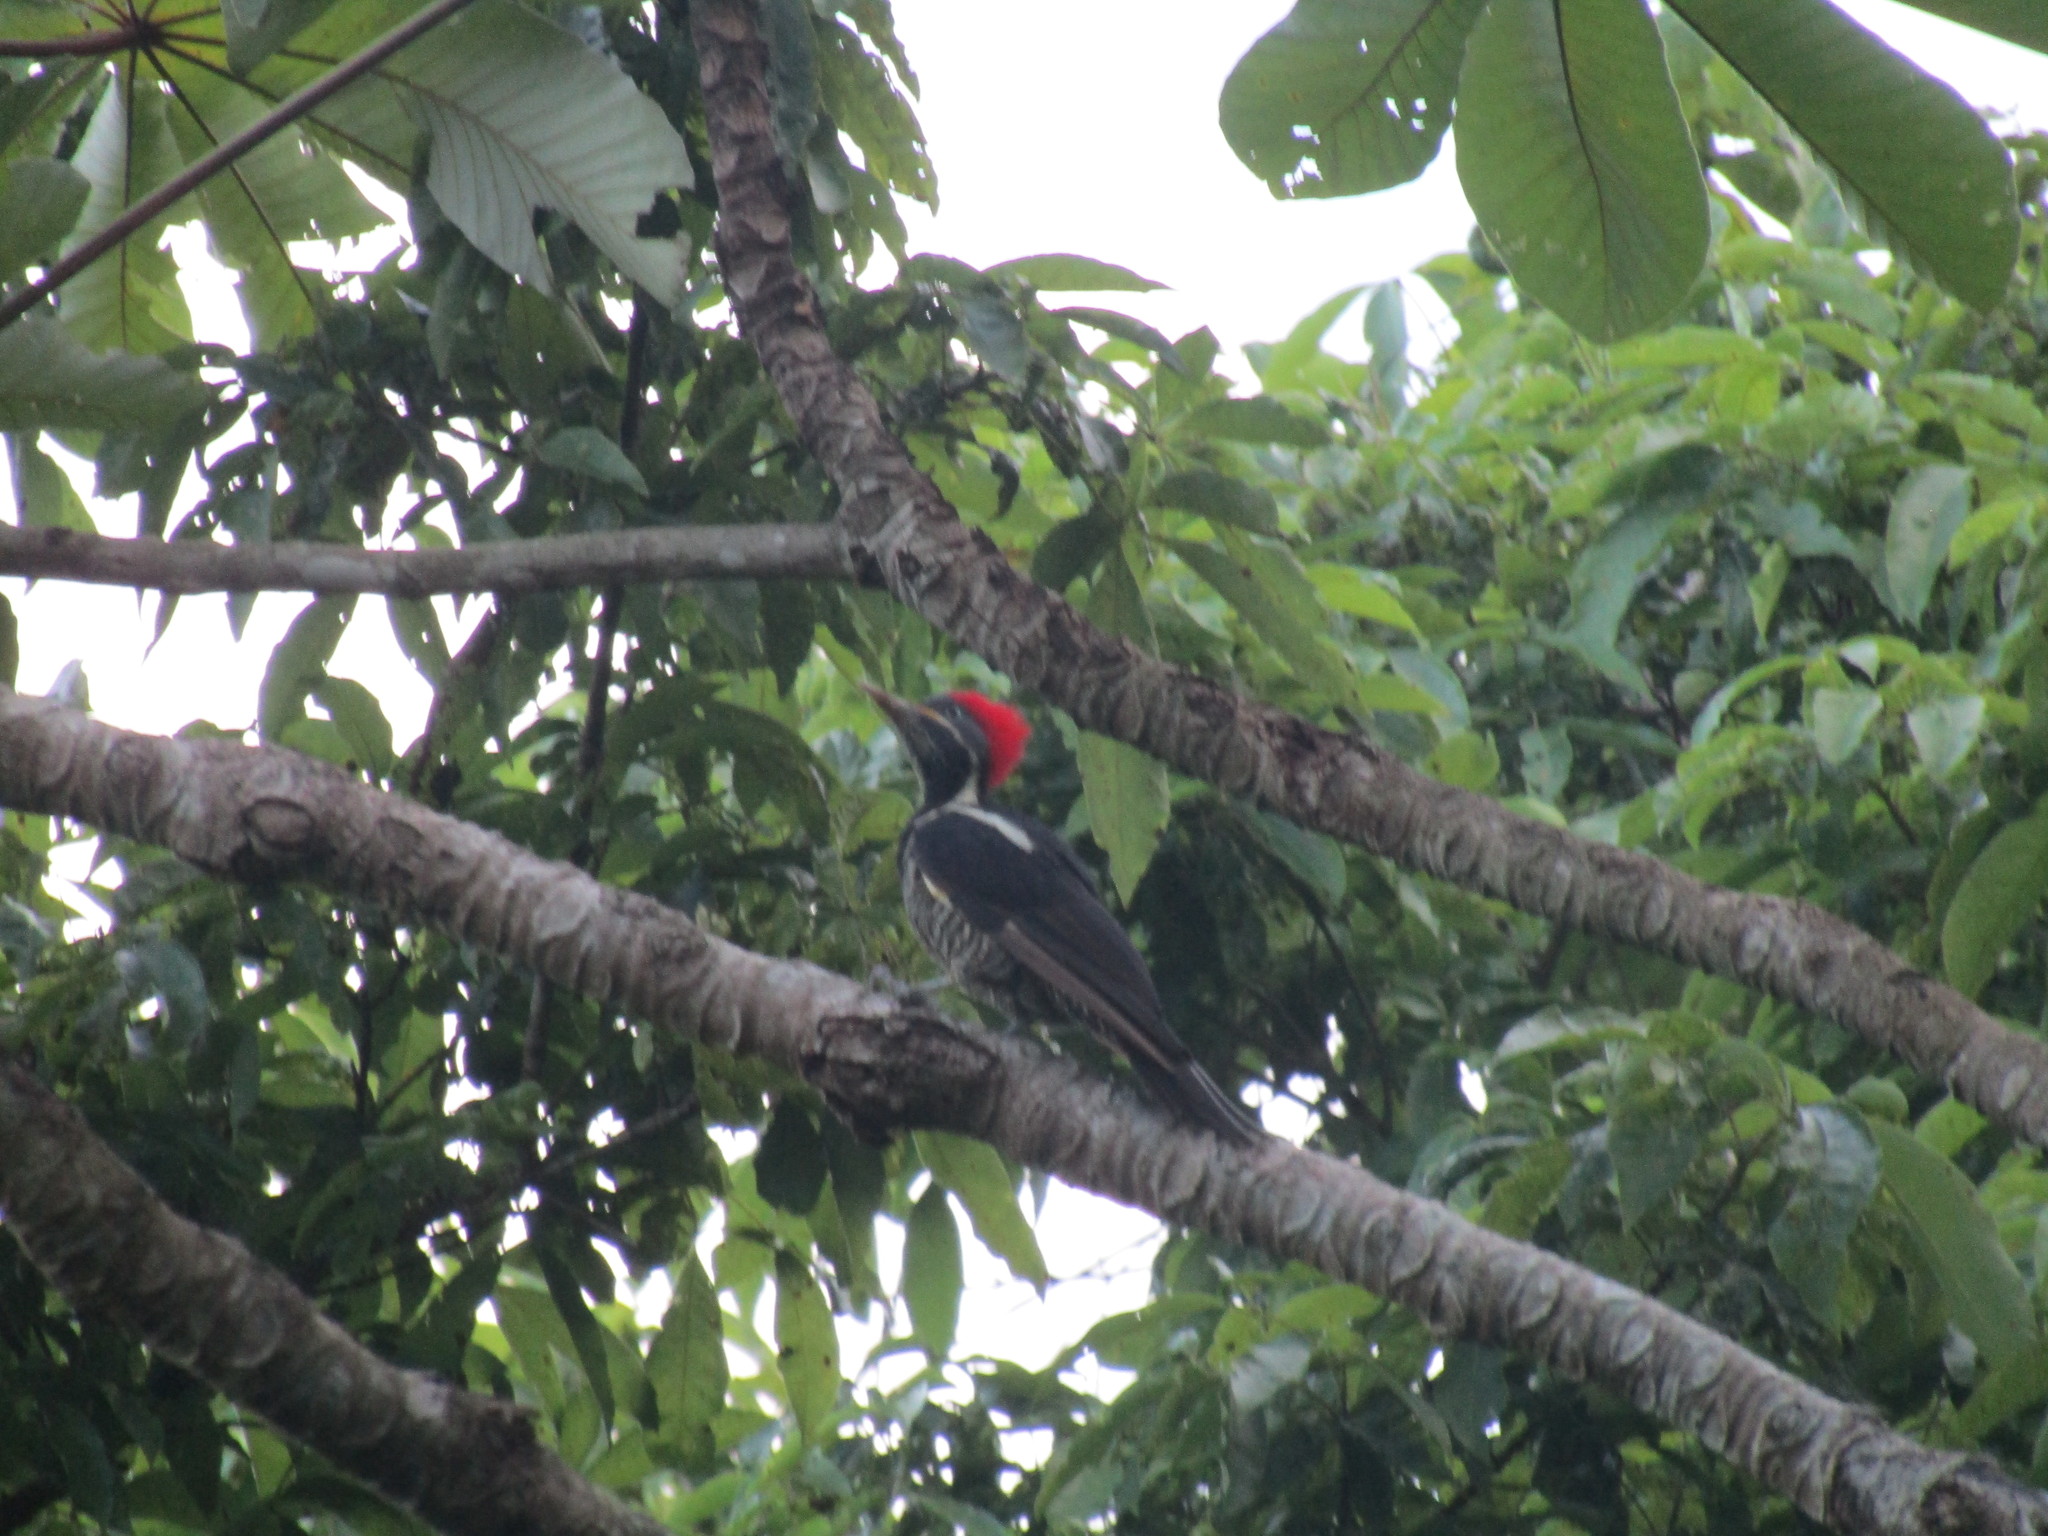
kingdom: Animalia
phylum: Chordata
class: Aves
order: Piciformes
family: Picidae
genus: Dryocopus
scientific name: Dryocopus lineatus
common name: Lineated woodpecker
